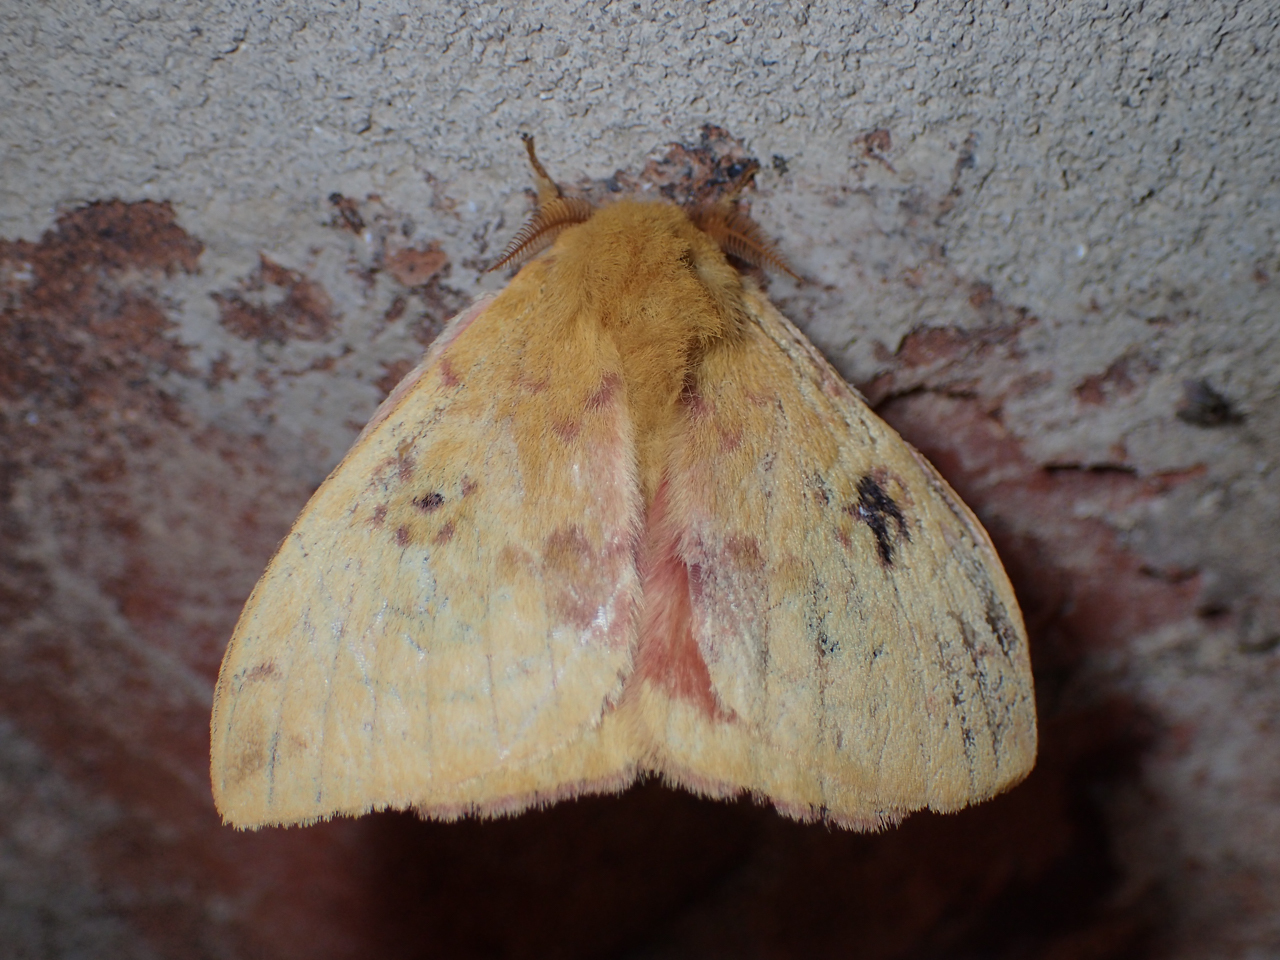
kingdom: Animalia
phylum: Arthropoda
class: Insecta
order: Lepidoptera
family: Saturniidae
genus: Automeris
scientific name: Automeris io
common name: Io moth
